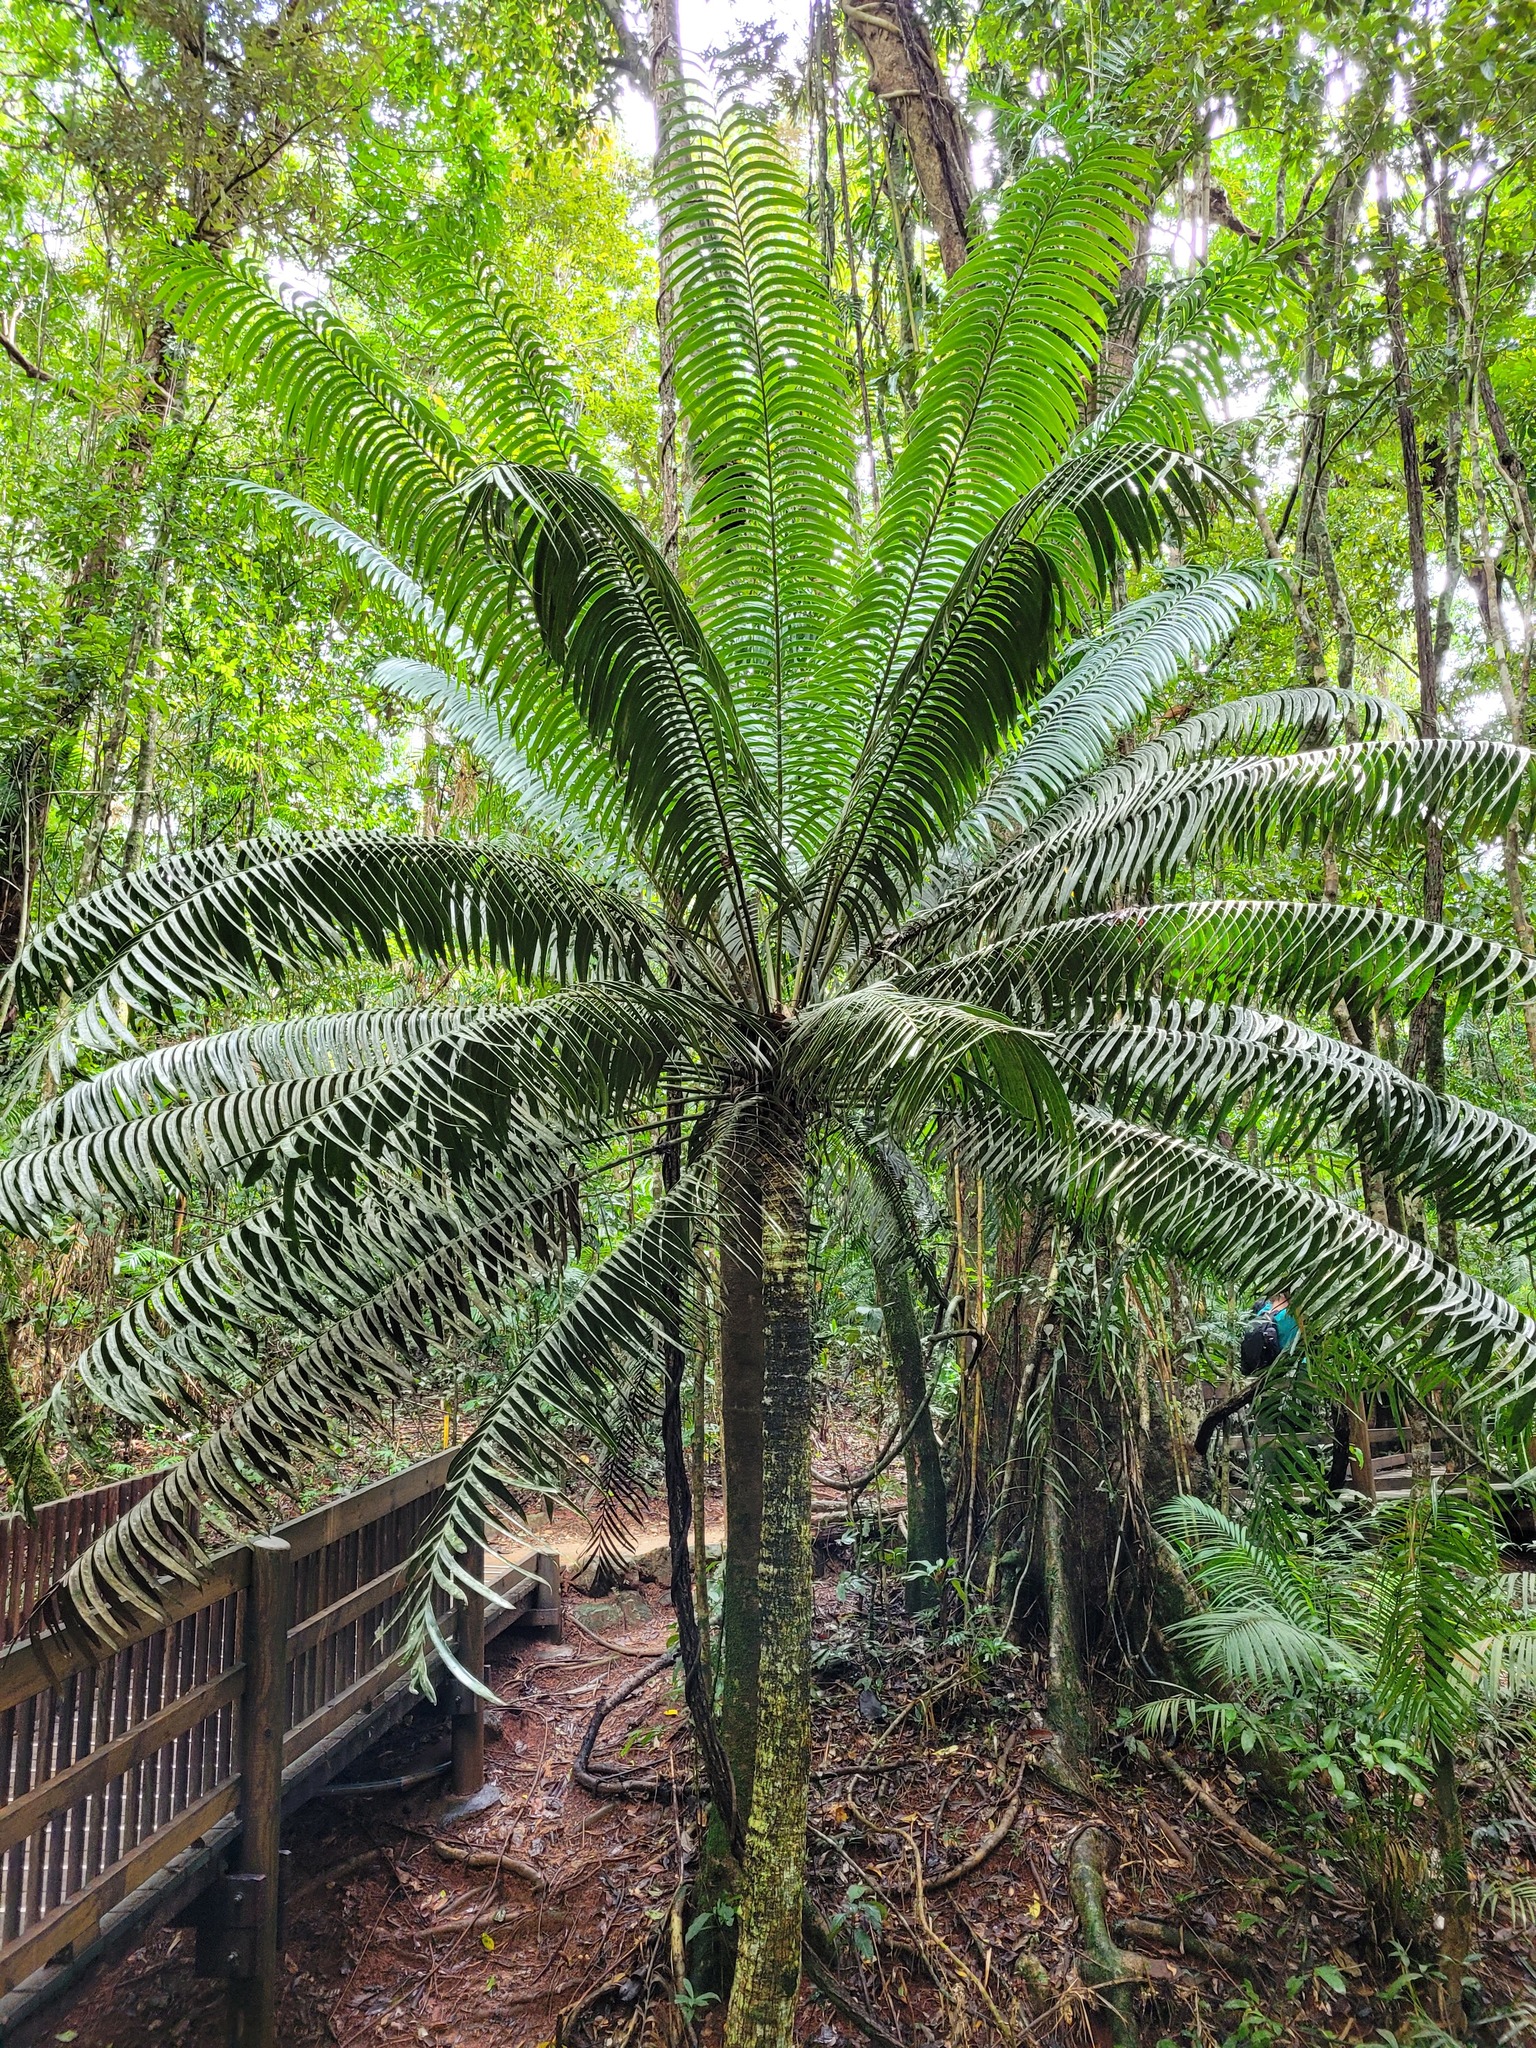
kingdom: Plantae
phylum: Tracheophyta
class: Cycadopsida
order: Cycadales
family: Zamiaceae
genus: Lepidozamia
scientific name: Lepidozamia hopei
